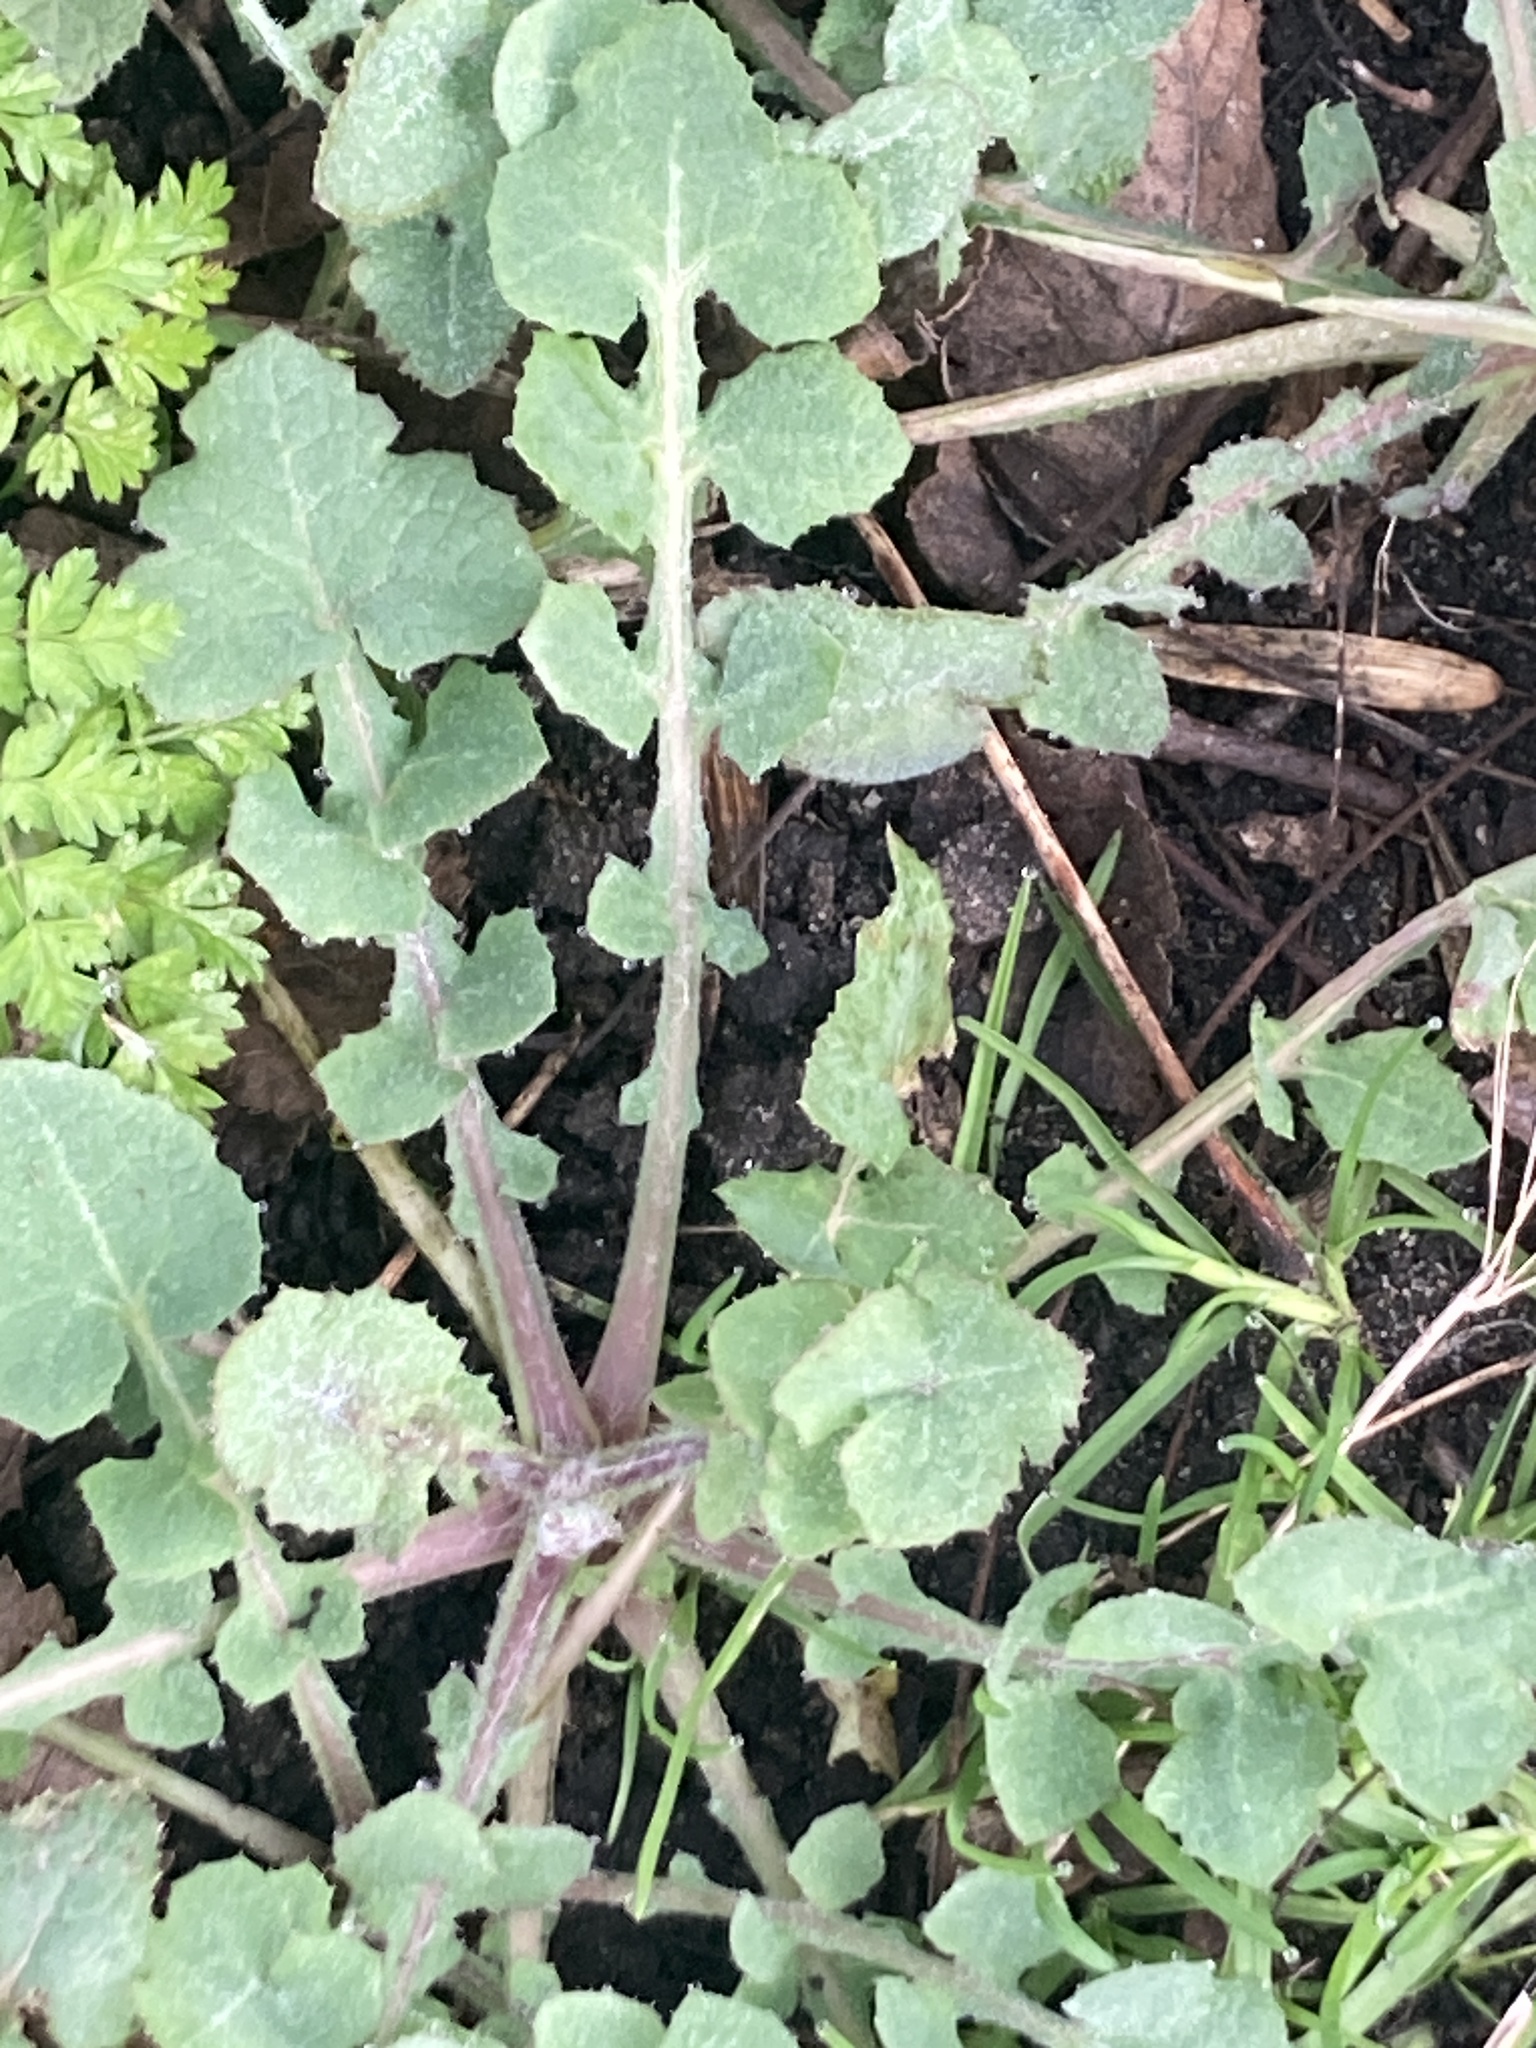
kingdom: Plantae
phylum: Tracheophyta
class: Magnoliopsida
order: Asterales
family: Asteraceae
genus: Sonchus
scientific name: Sonchus oleraceus
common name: Common sowthistle
